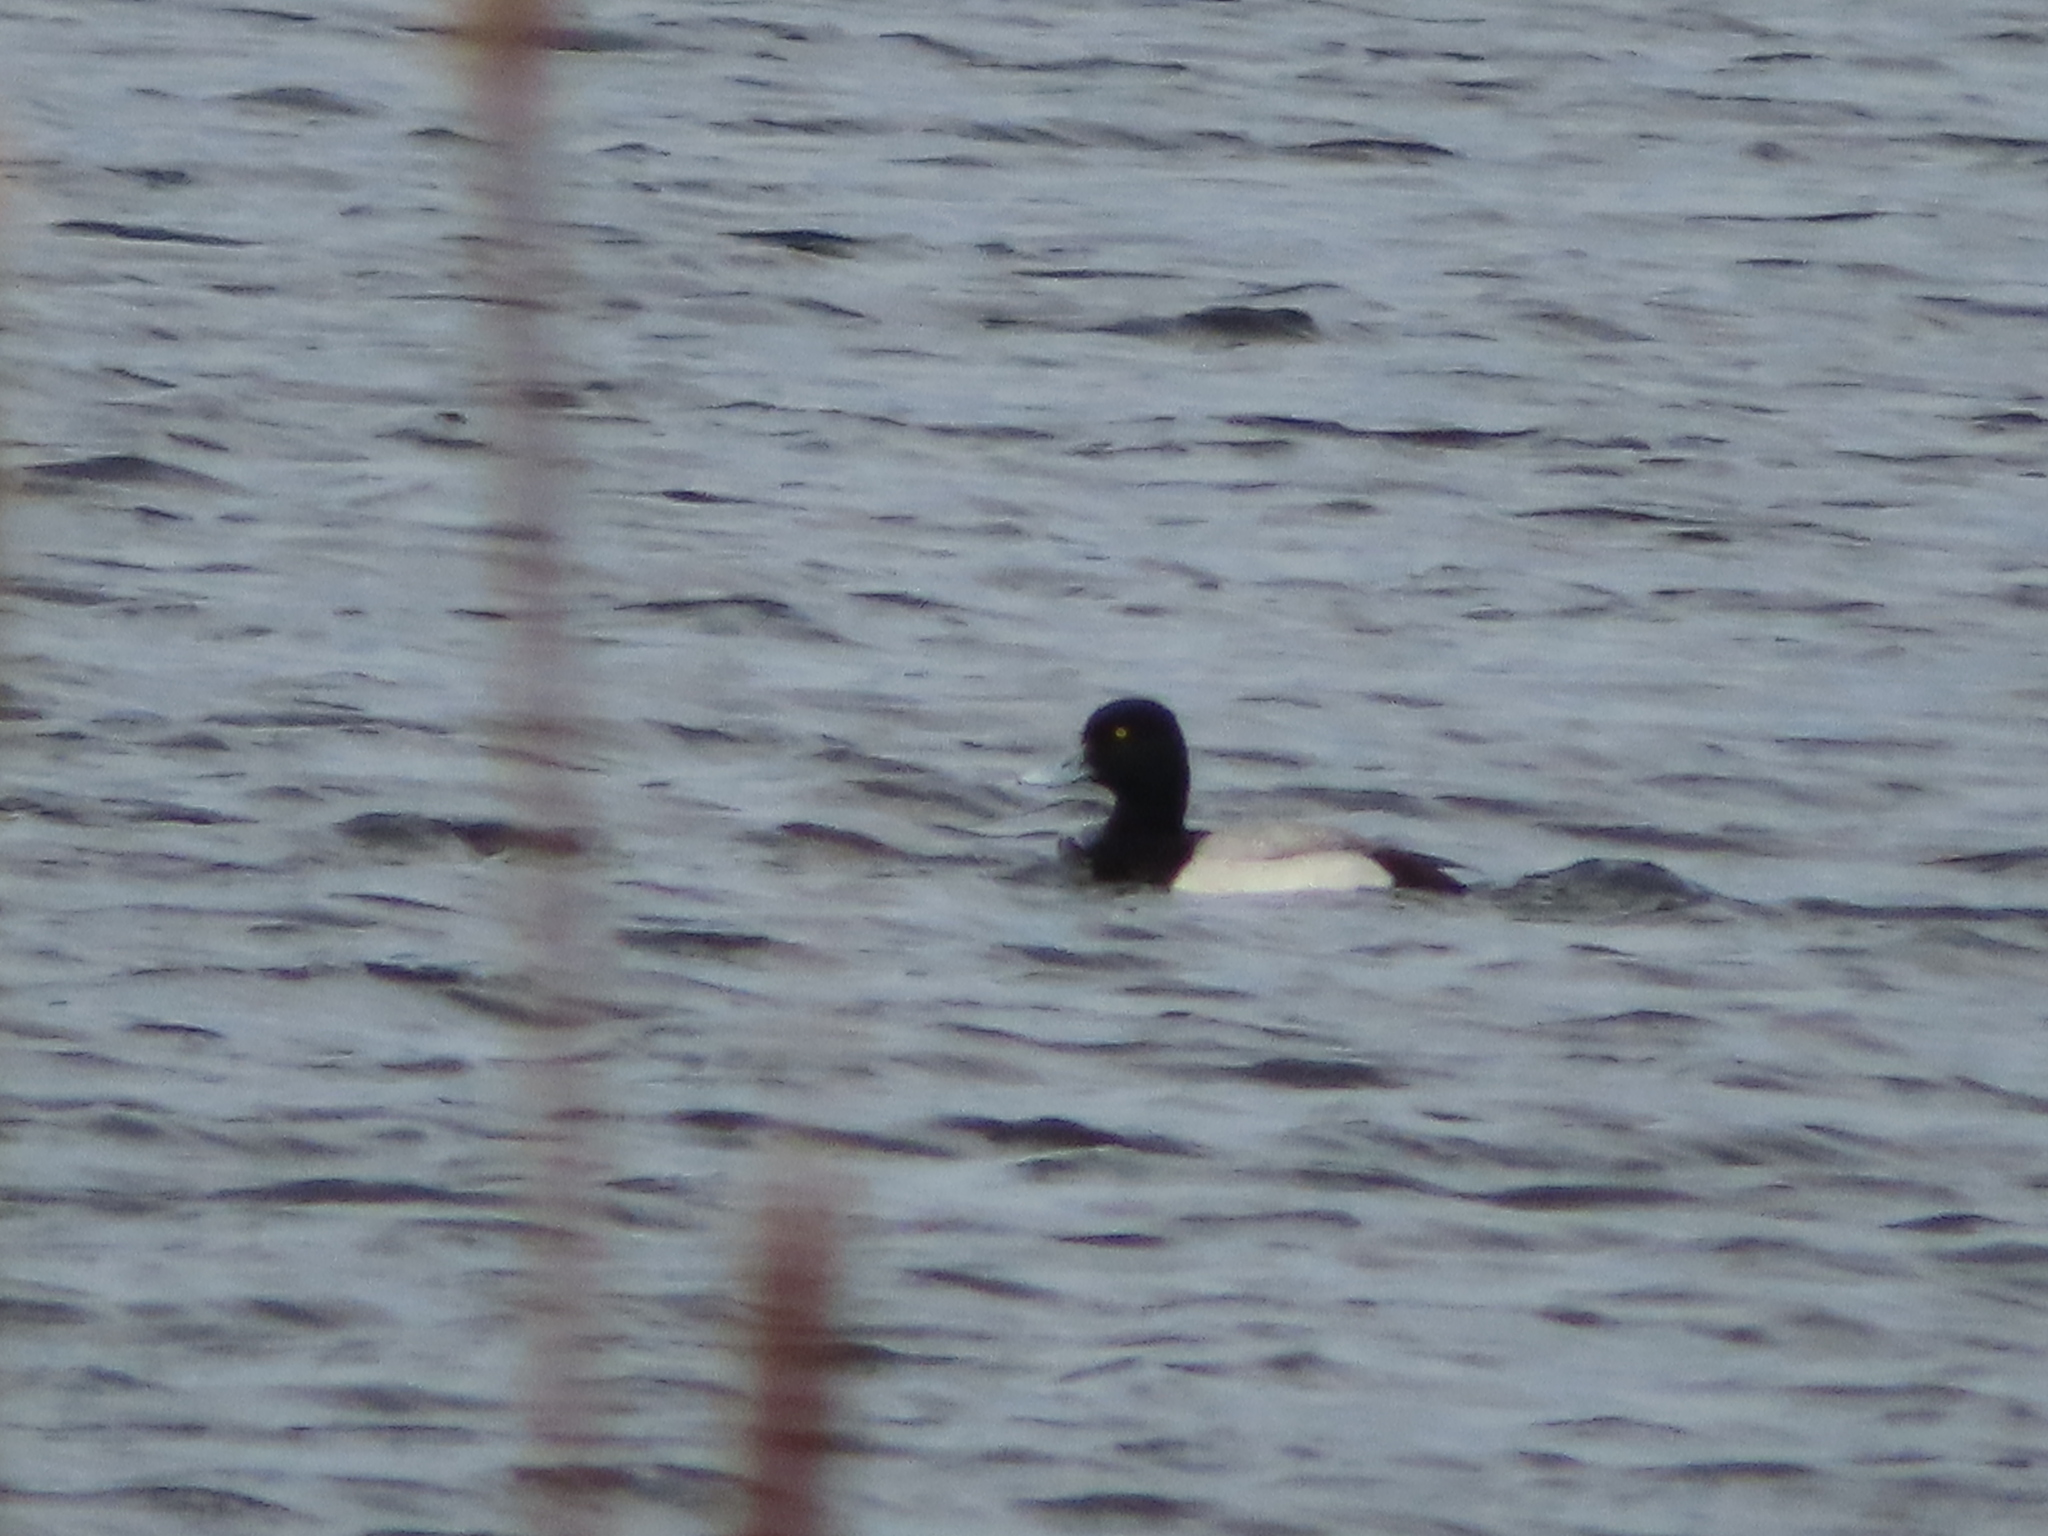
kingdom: Animalia
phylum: Chordata
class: Aves
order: Anseriformes
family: Anatidae
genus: Aythya
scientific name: Aythya marila
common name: Greater scaup
